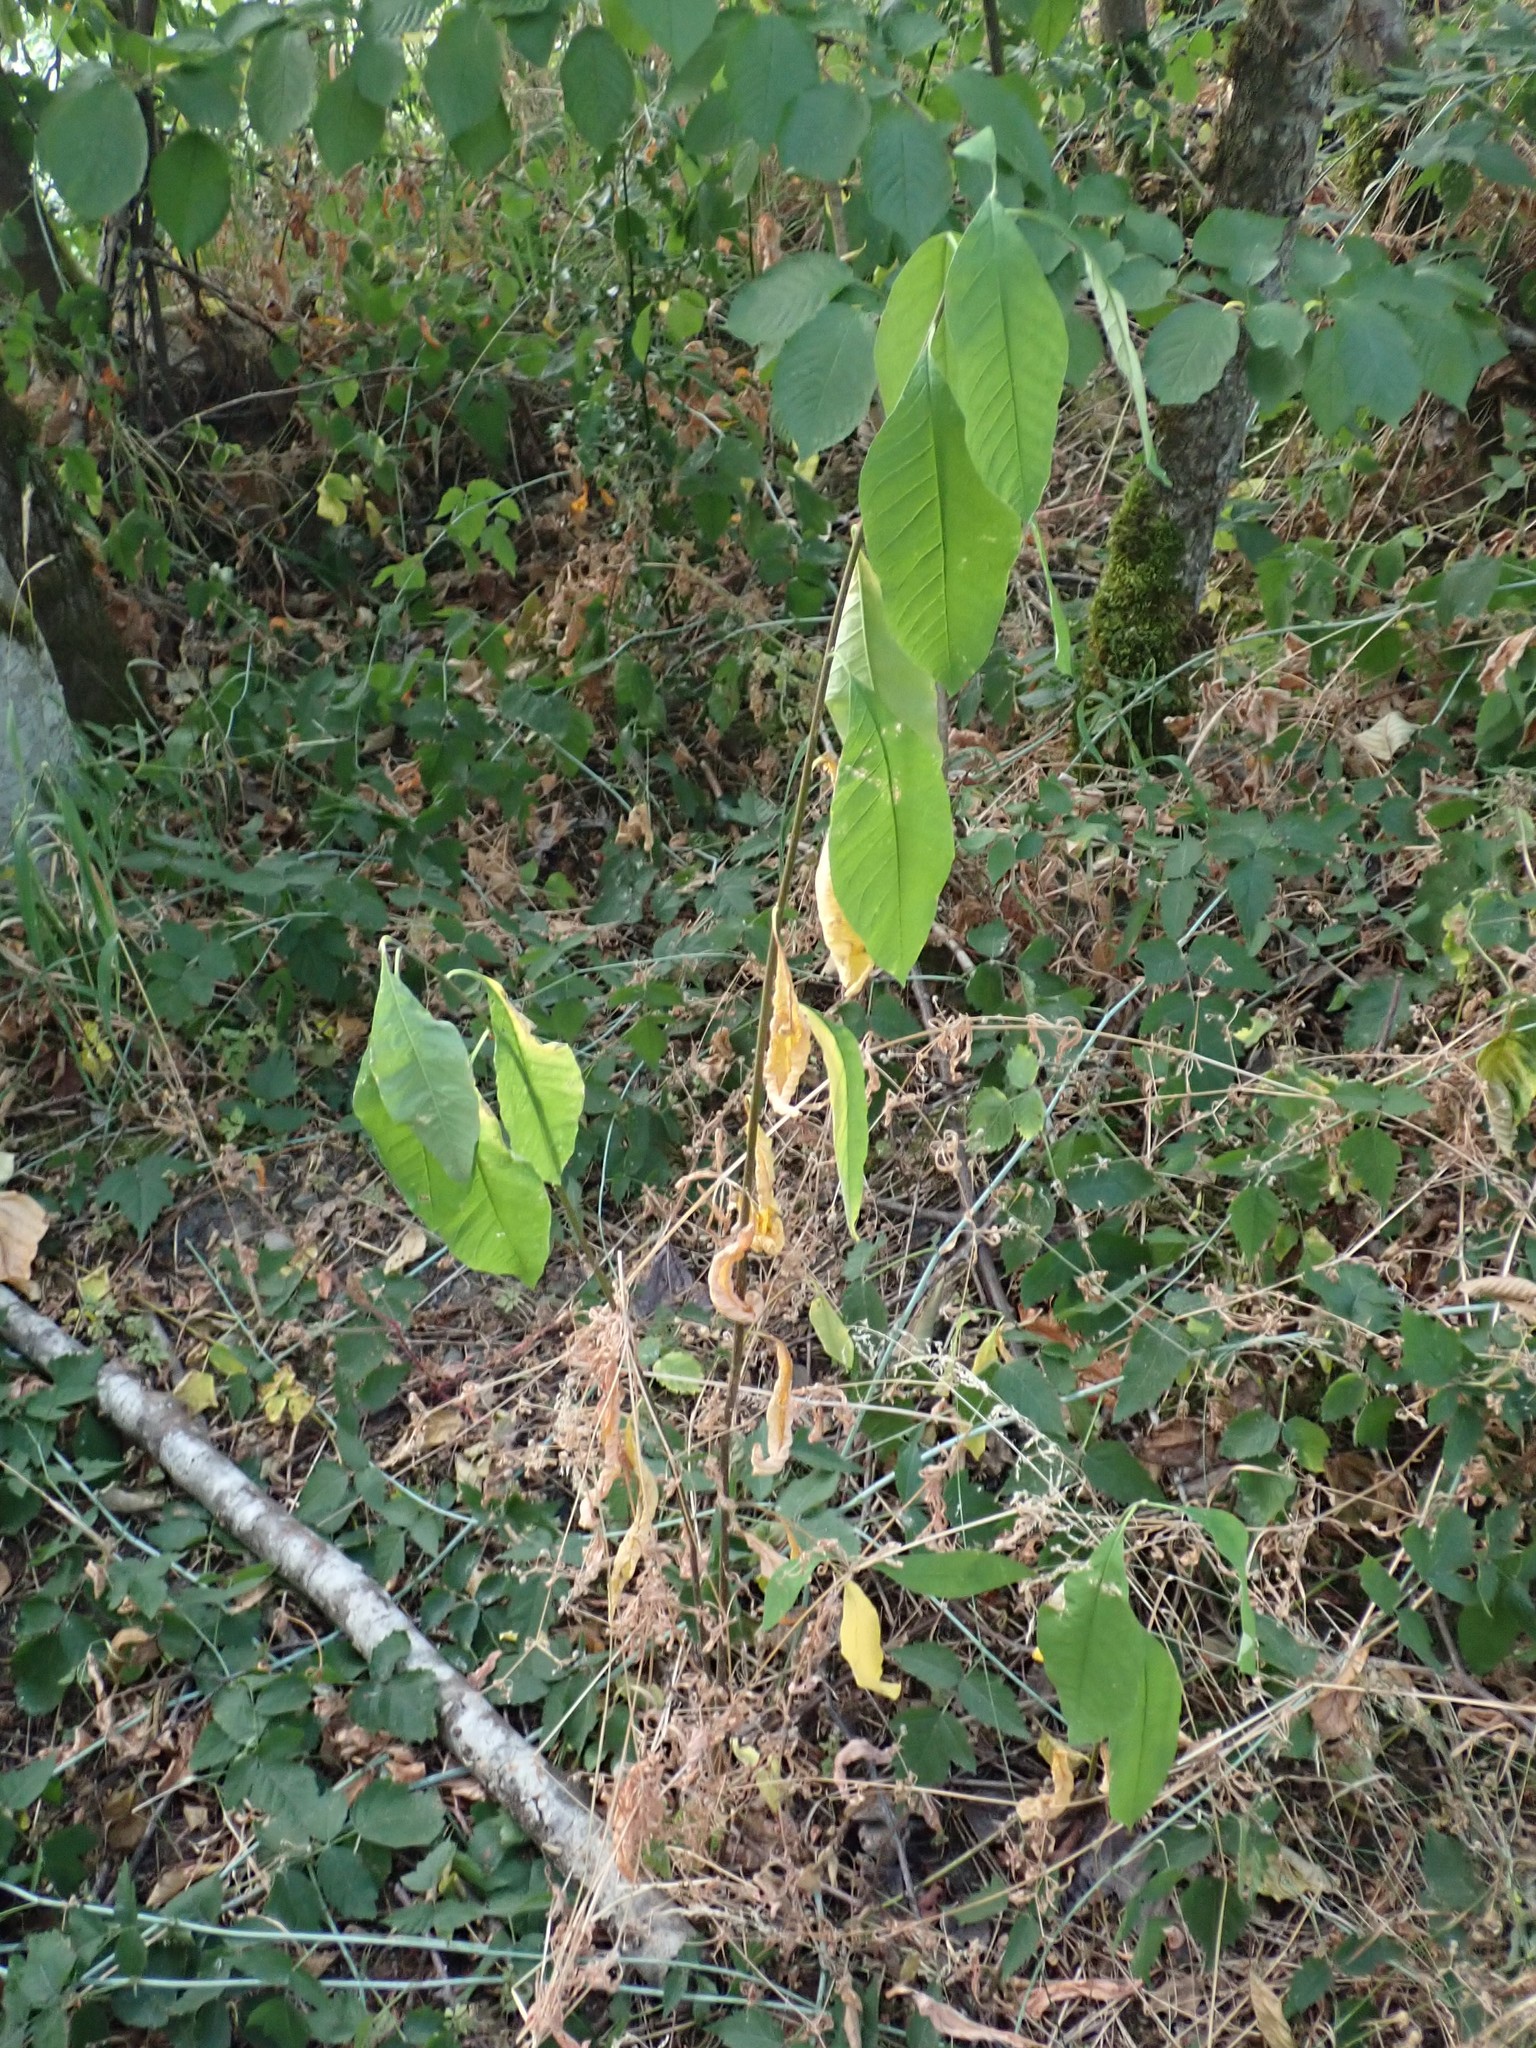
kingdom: Plantae
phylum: Tracheophyta
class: Magnoliopsida
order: Rosales
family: Rosaceae
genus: Oemleria
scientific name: Oemleria cerasiformis
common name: Osoberry
